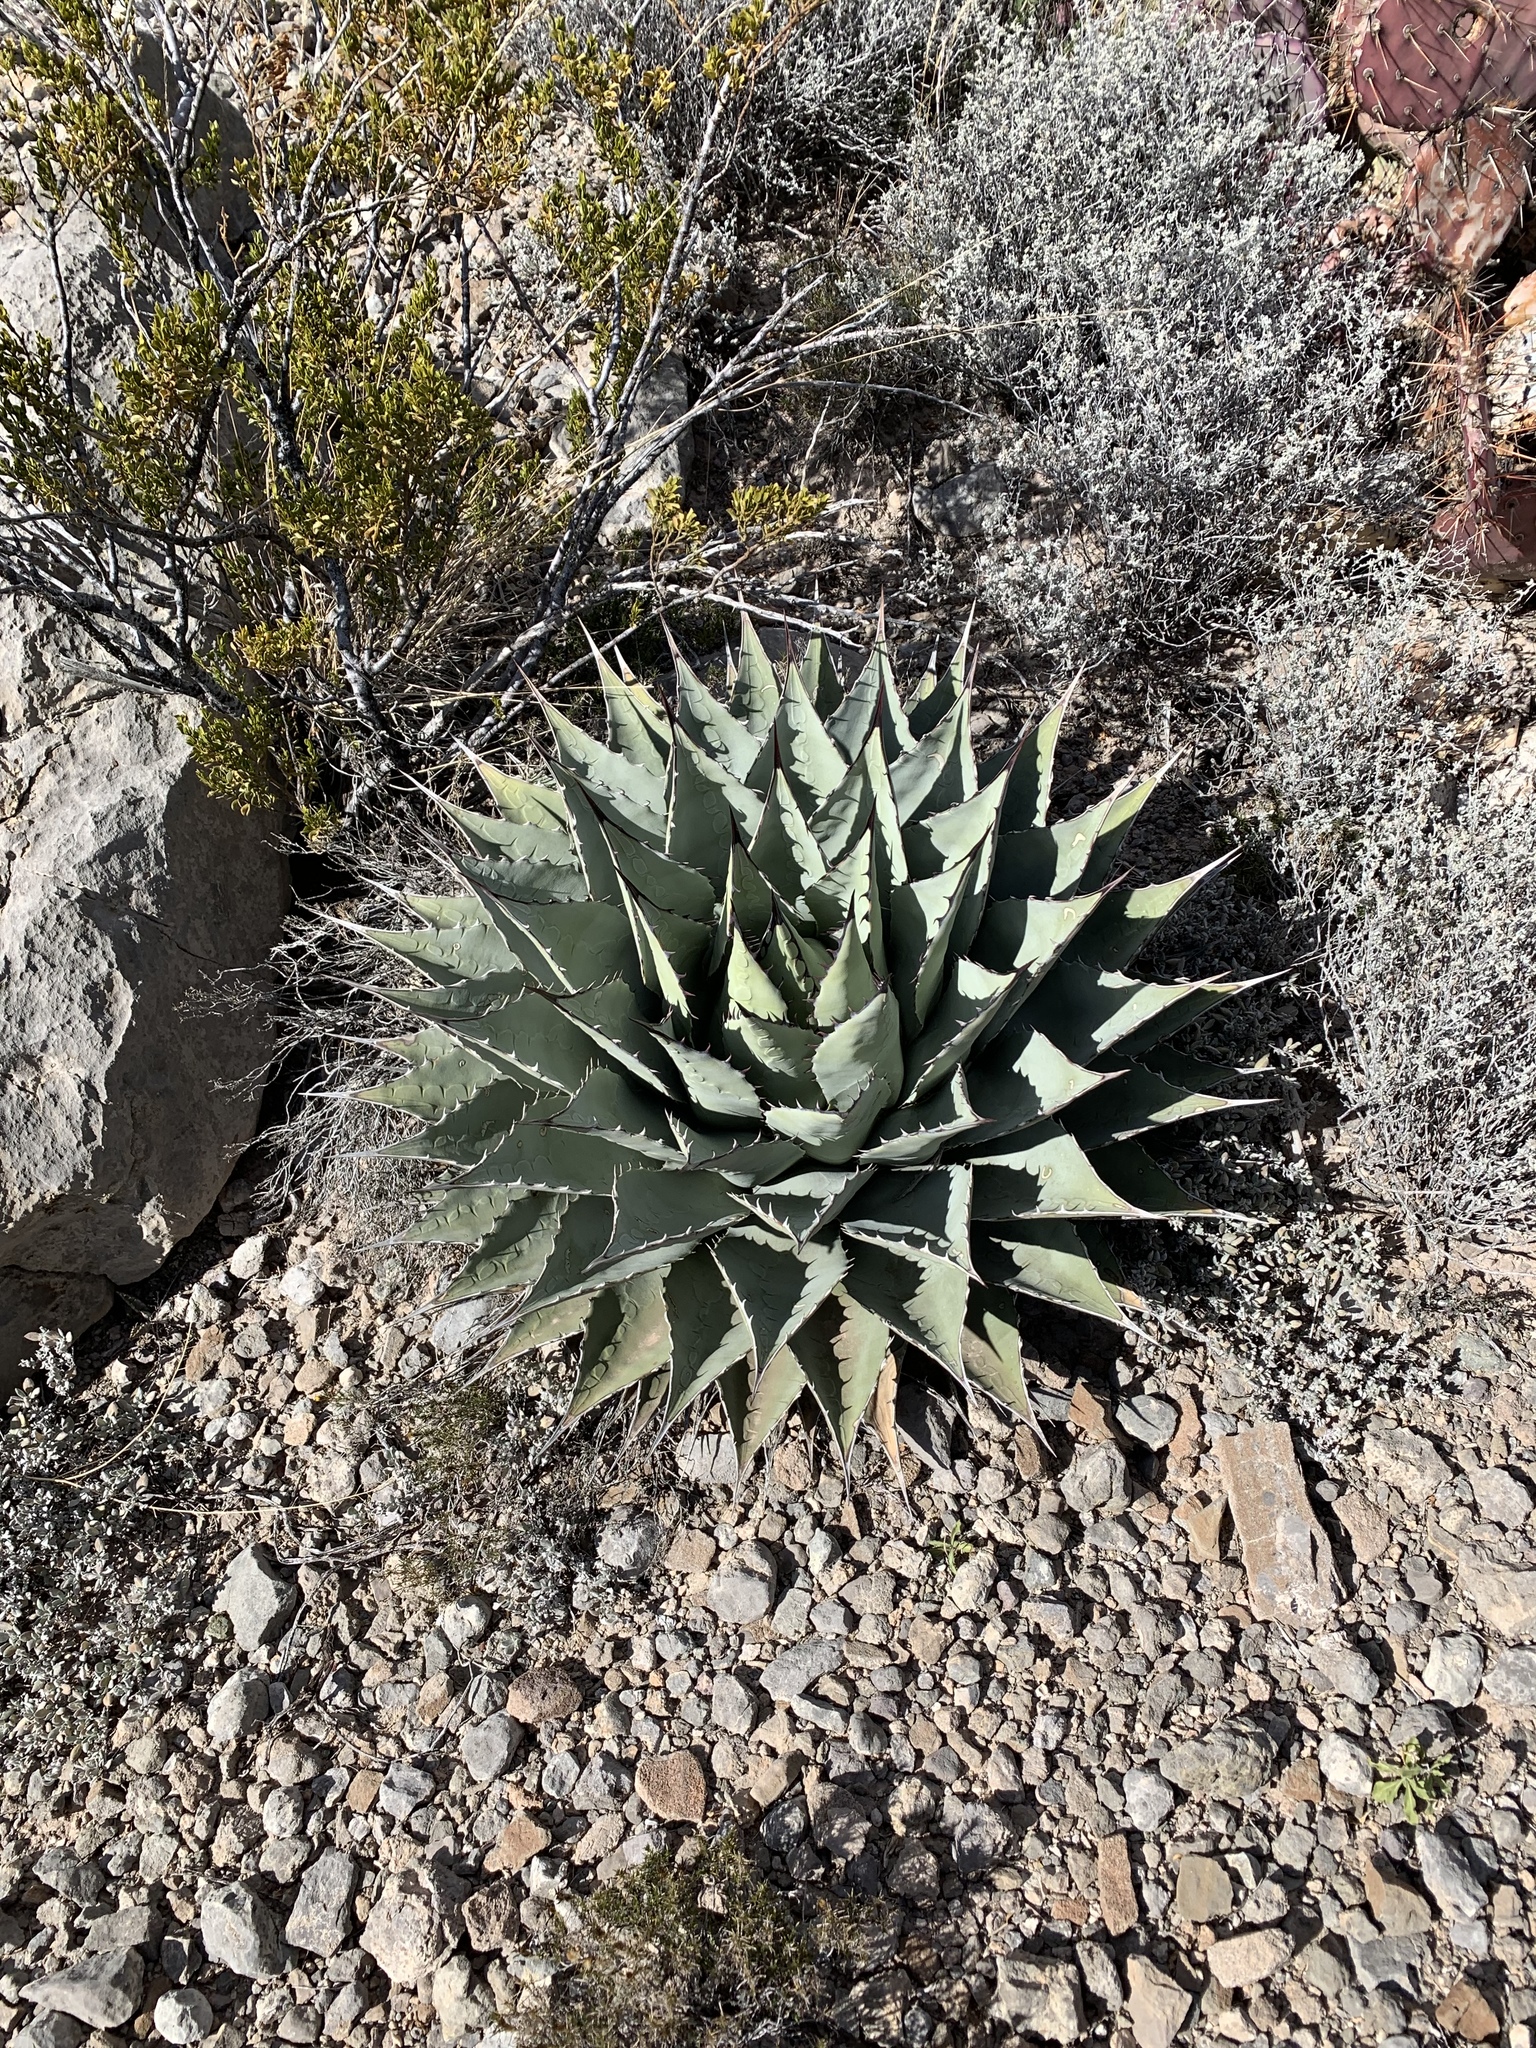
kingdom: Plantae
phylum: Tracheophyta
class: Liliopsida
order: Asparagales
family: Asparagaceae
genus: Agave
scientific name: Agave parryi
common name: Parry's agave
